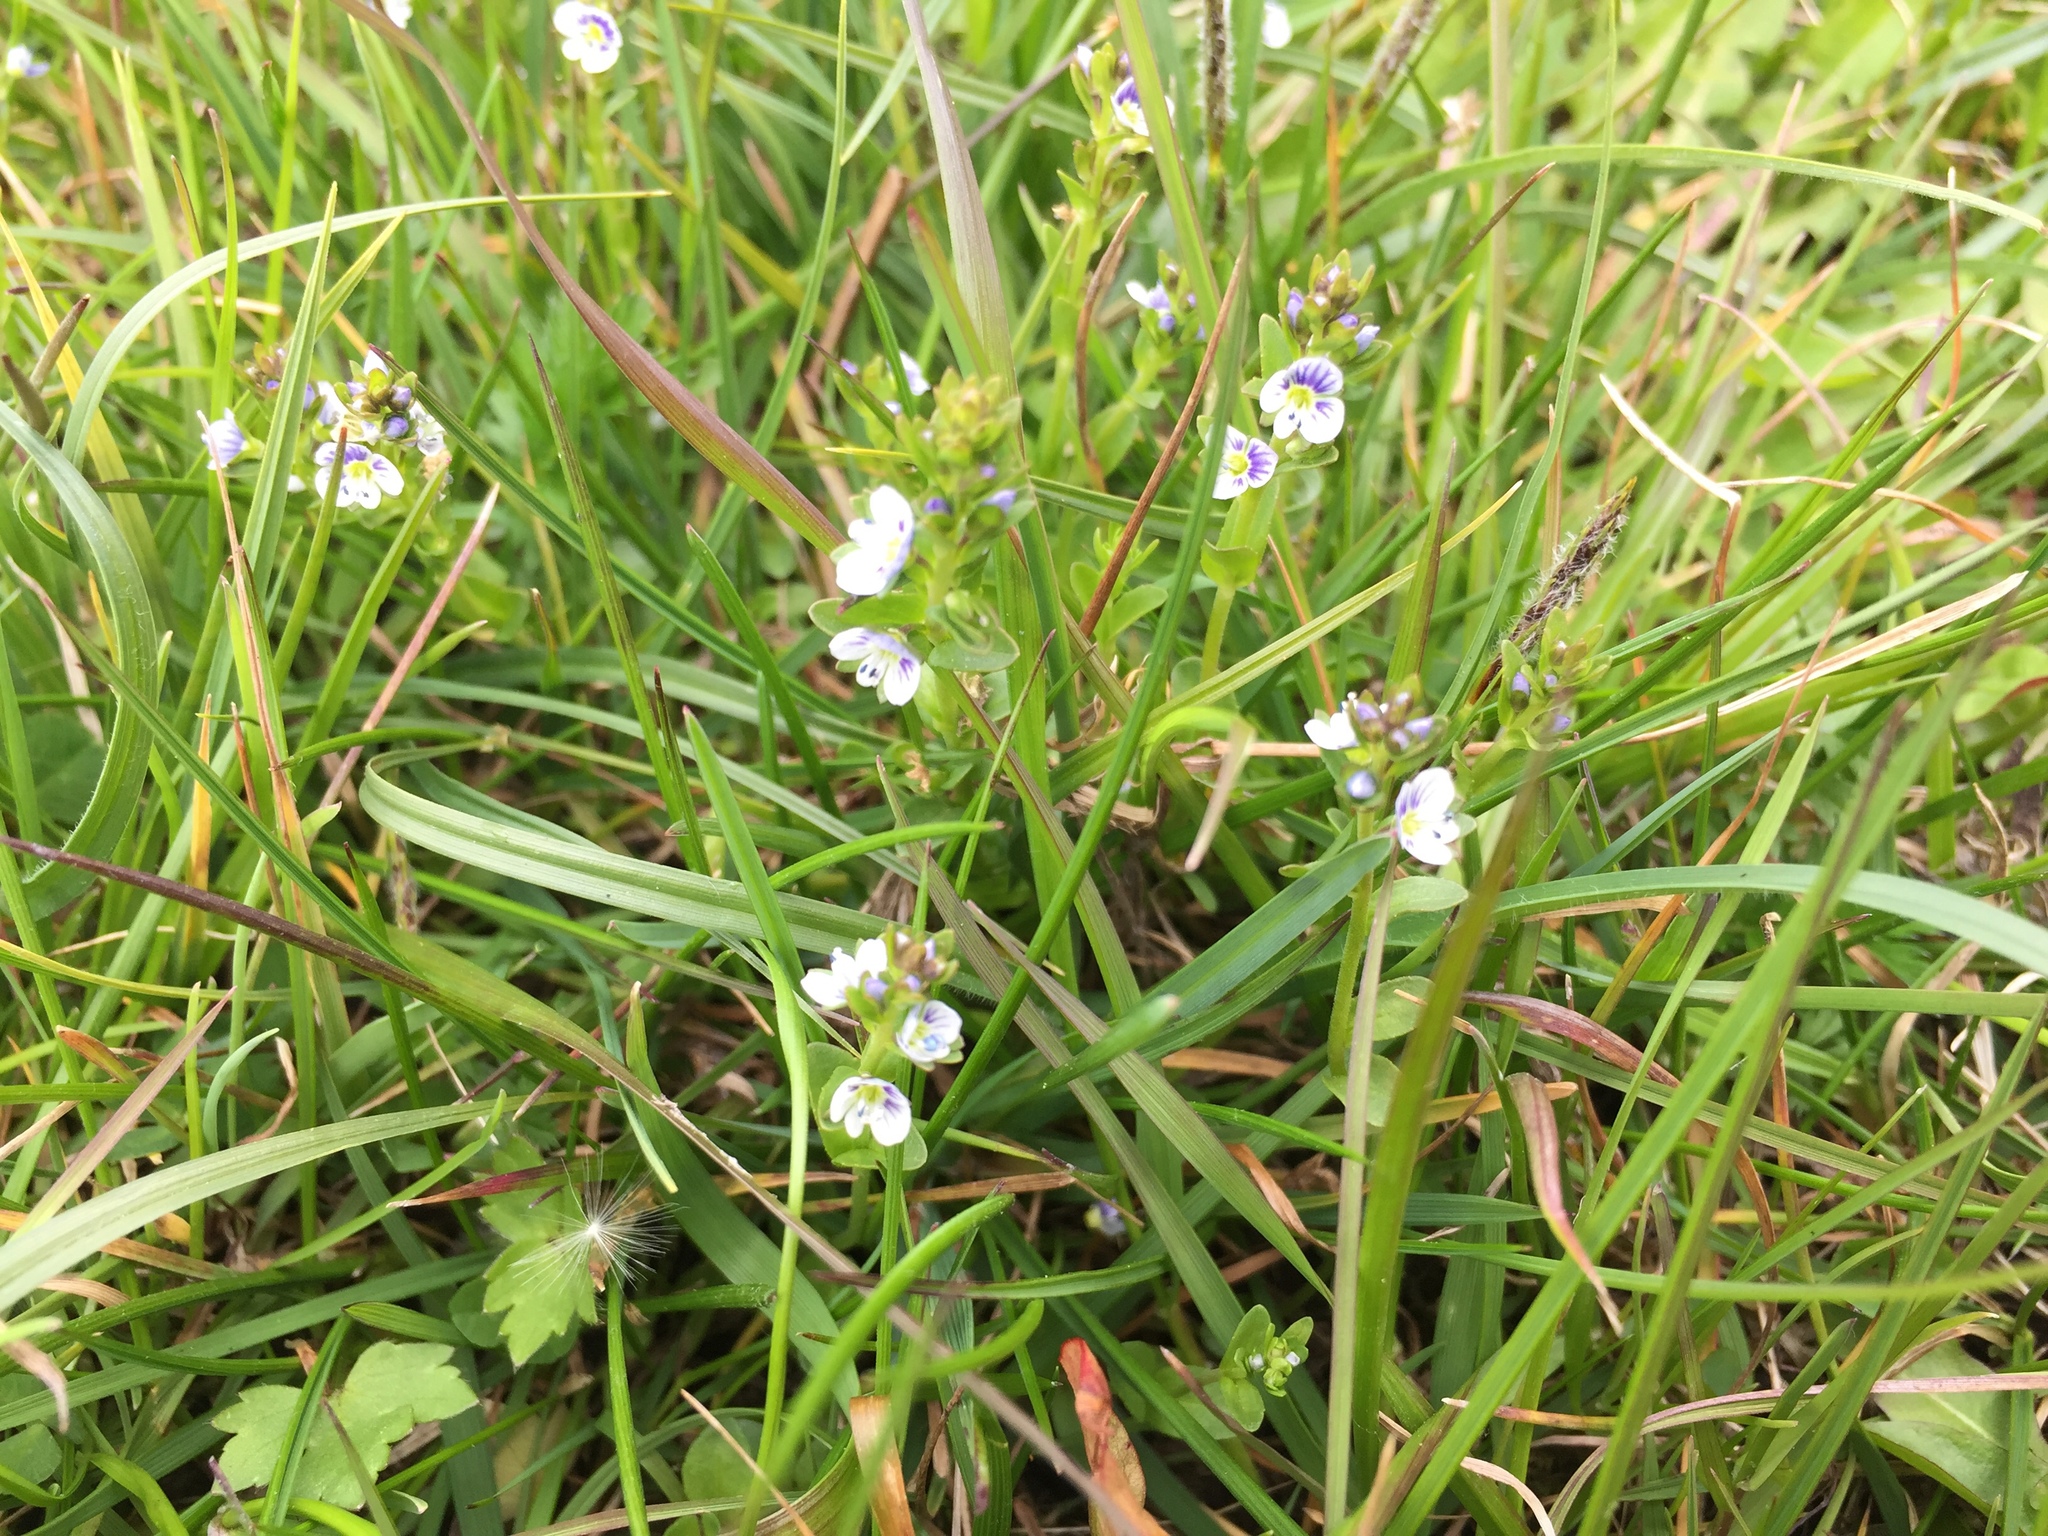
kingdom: Plantae
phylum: Tracheophyta
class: Magnoliopsida
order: Lamiales
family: Plantaginaceae
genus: Veronica
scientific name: Veronica serpyllifolia
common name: Thyme-leaved speedwell
